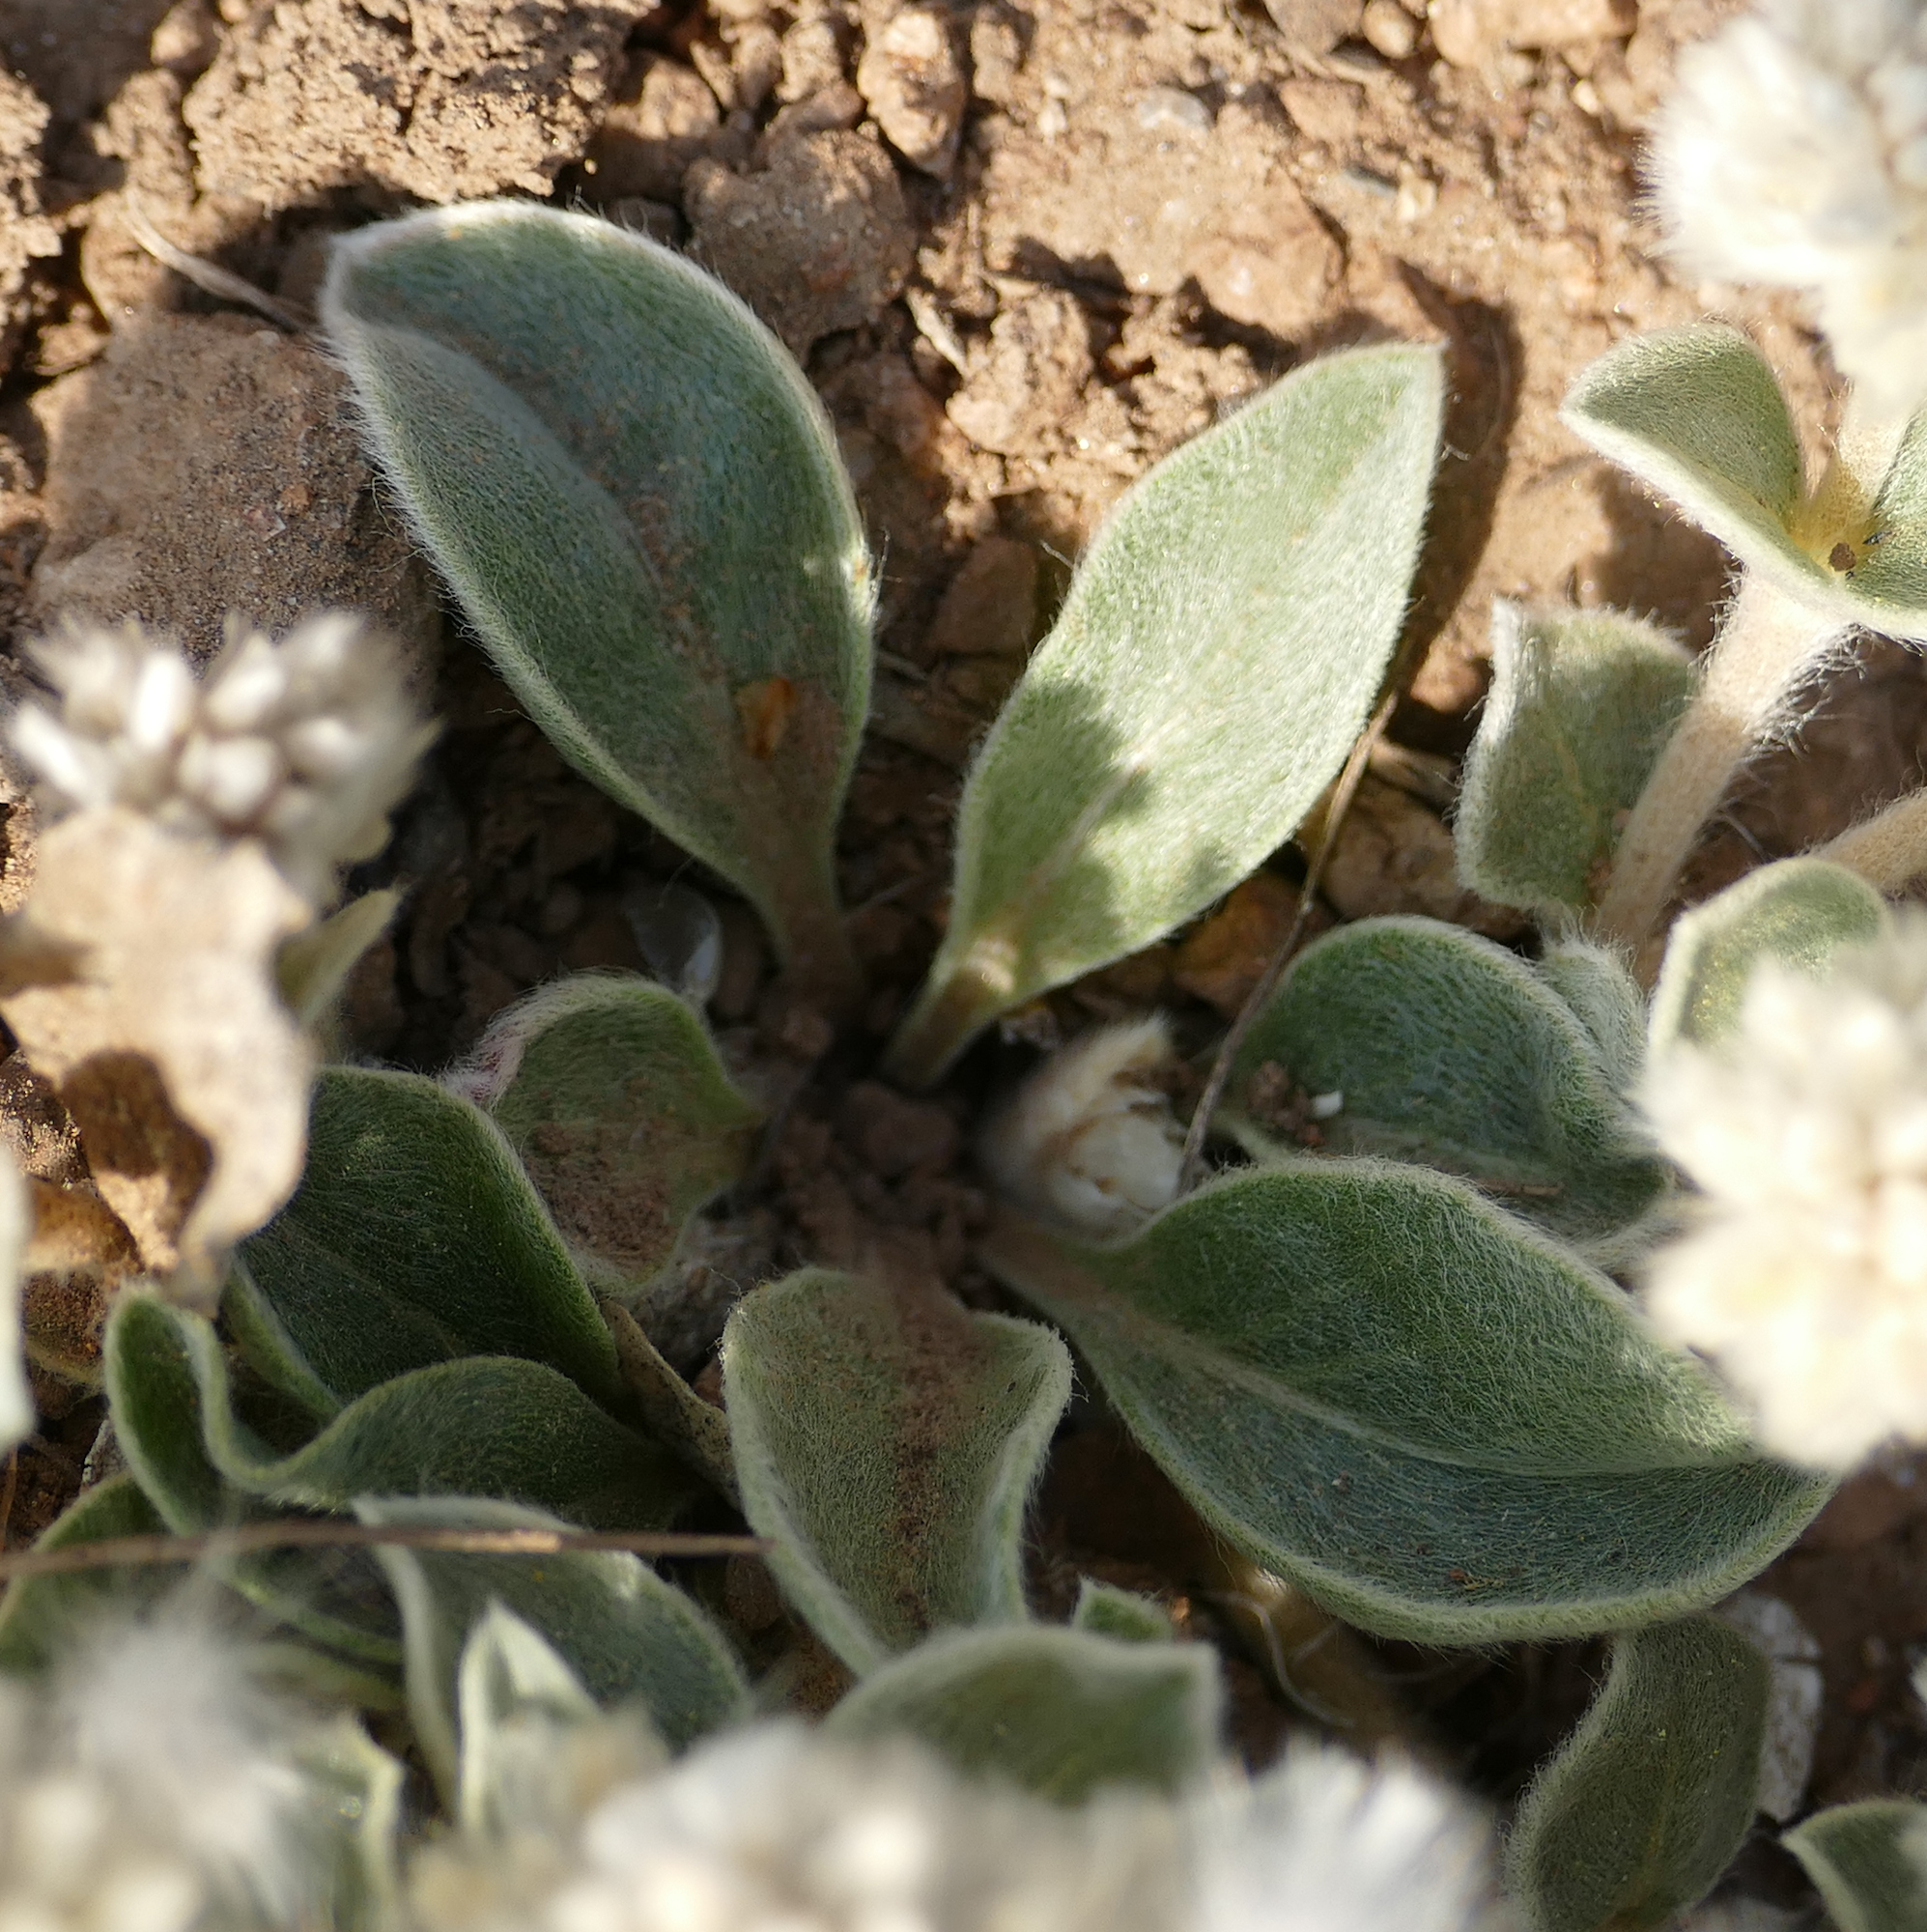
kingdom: Plantae
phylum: Tracheophyta
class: Magnoliopsida
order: Caryophyllales
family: Amaranthaceae
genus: Gomphrena
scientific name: Gomphrena caespitosa
